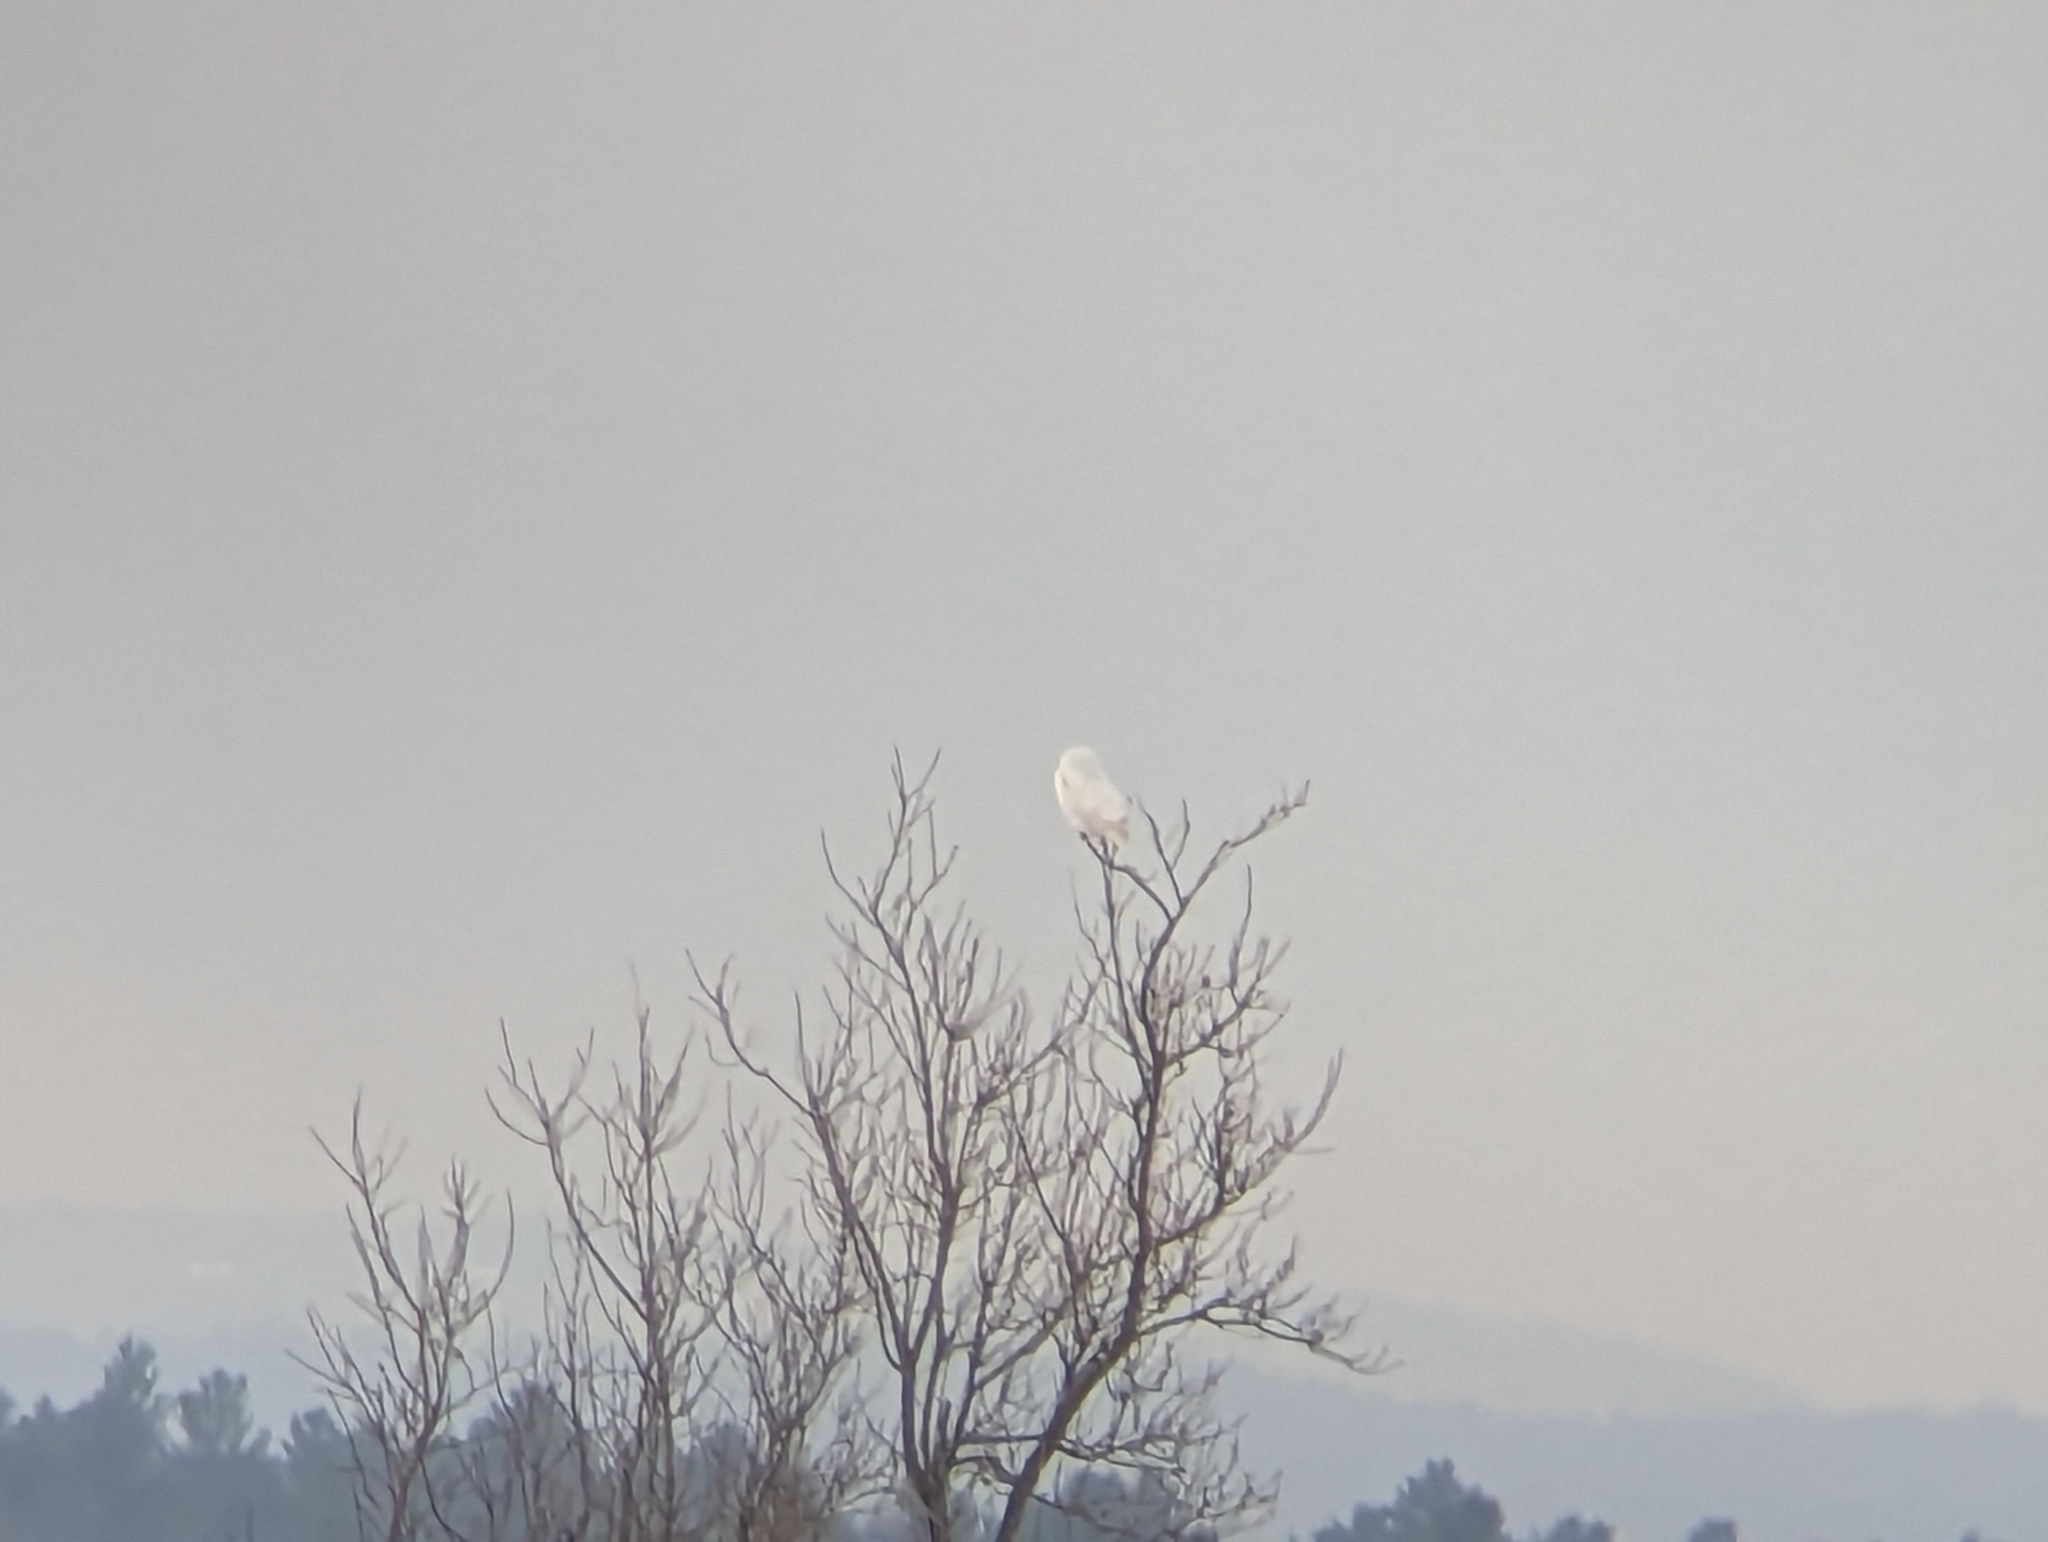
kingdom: Animalia
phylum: Chordata
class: Aves
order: Strigiformes
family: Strigidae
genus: Bubo
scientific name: Bubo scandiacus
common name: Snowy owl
